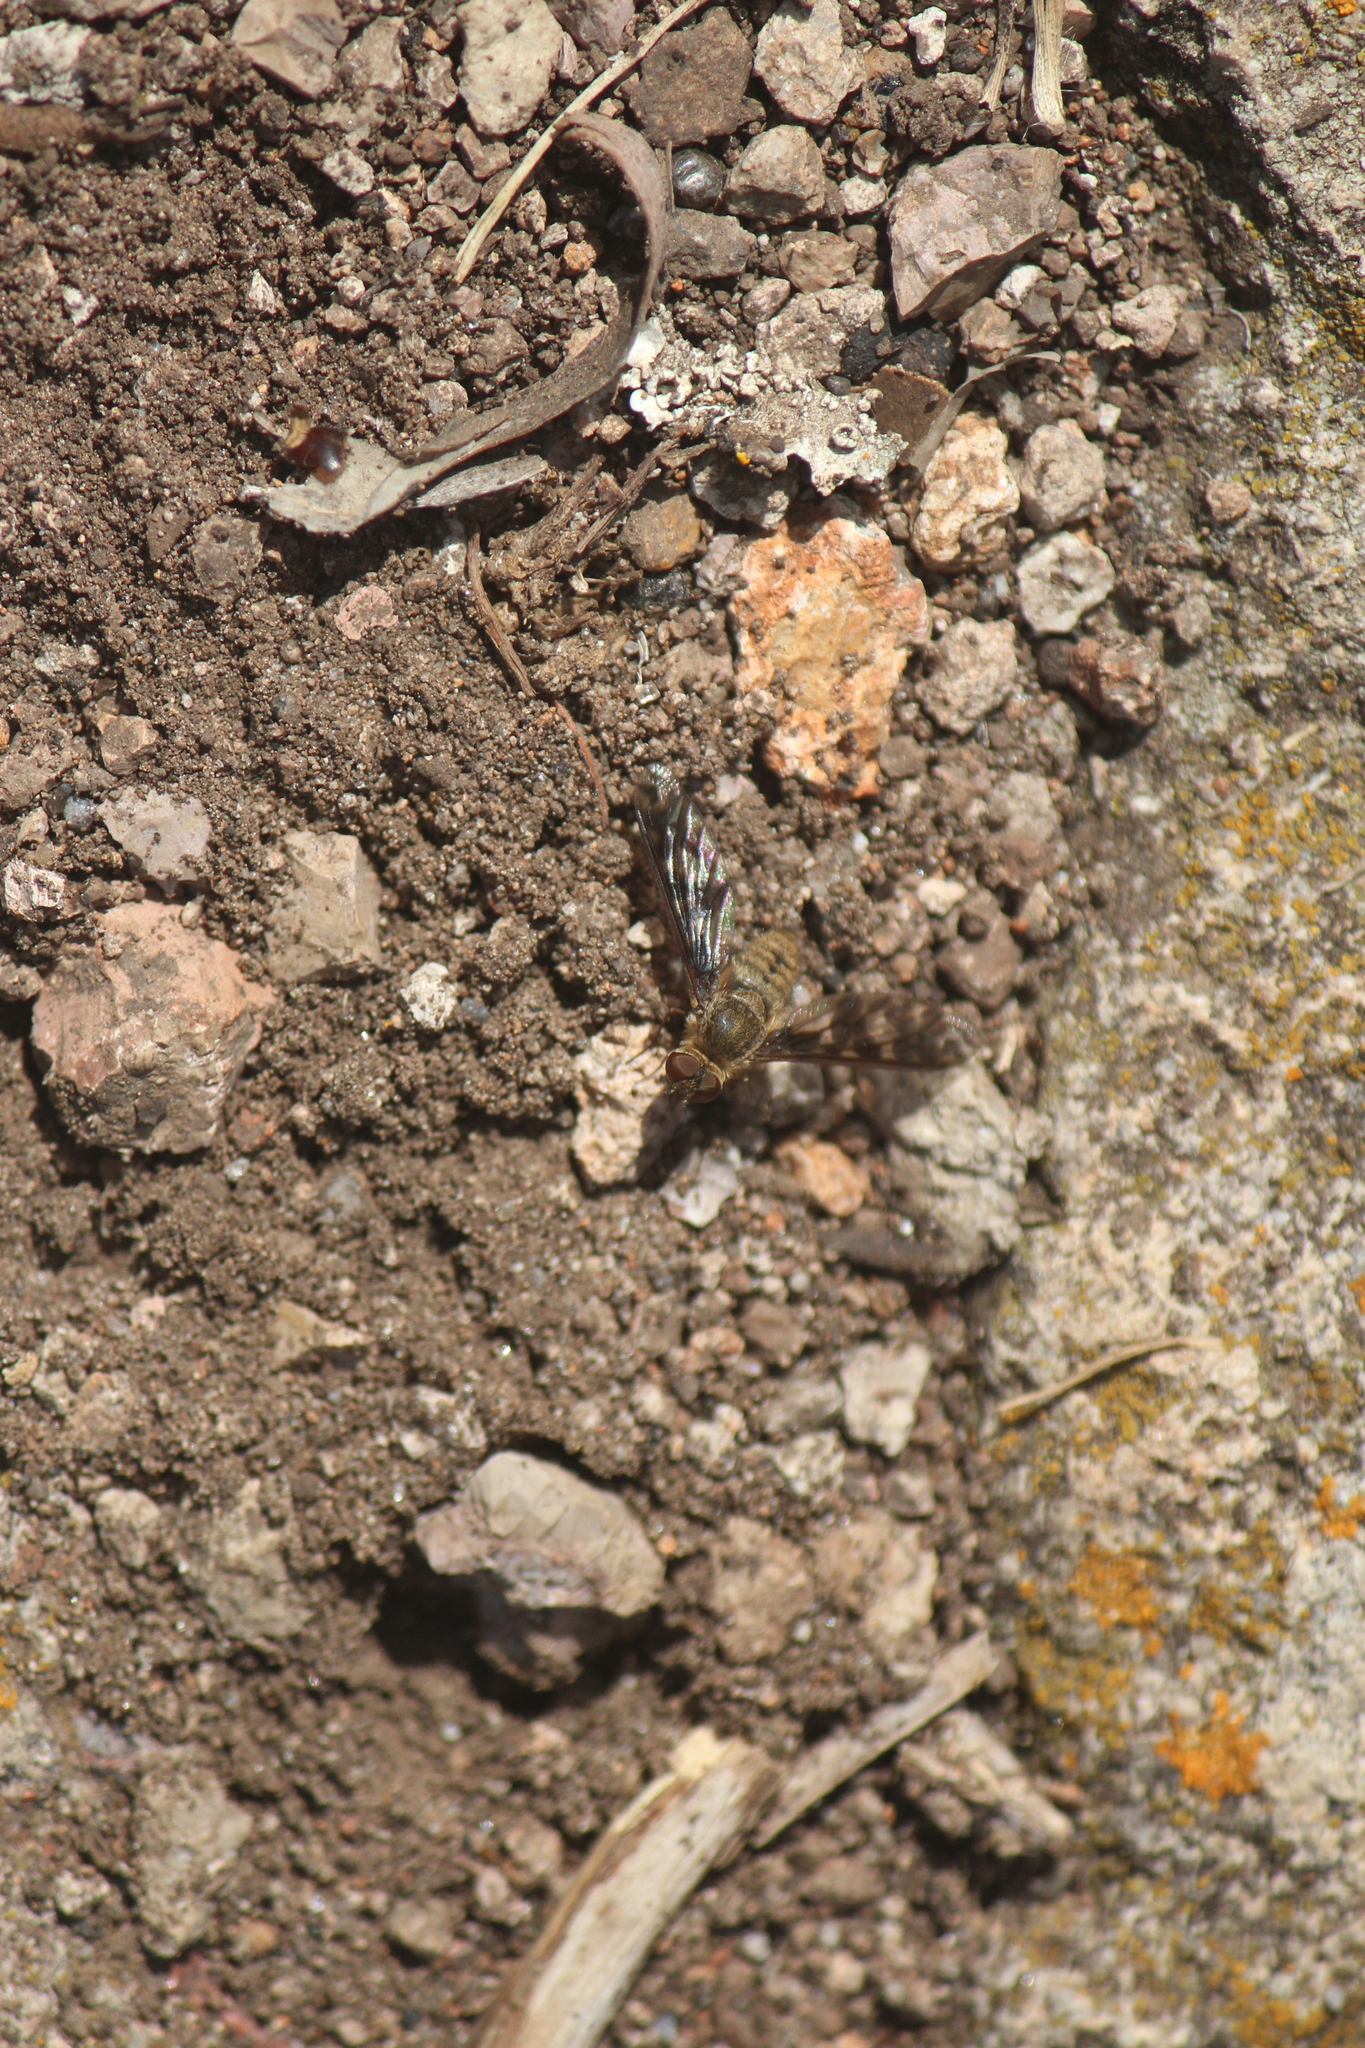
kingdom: Animalia
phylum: Arthropoda
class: Insecta
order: Diptera
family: Bombyliidae
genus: Dipalta
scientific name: Dipalta serpentina
